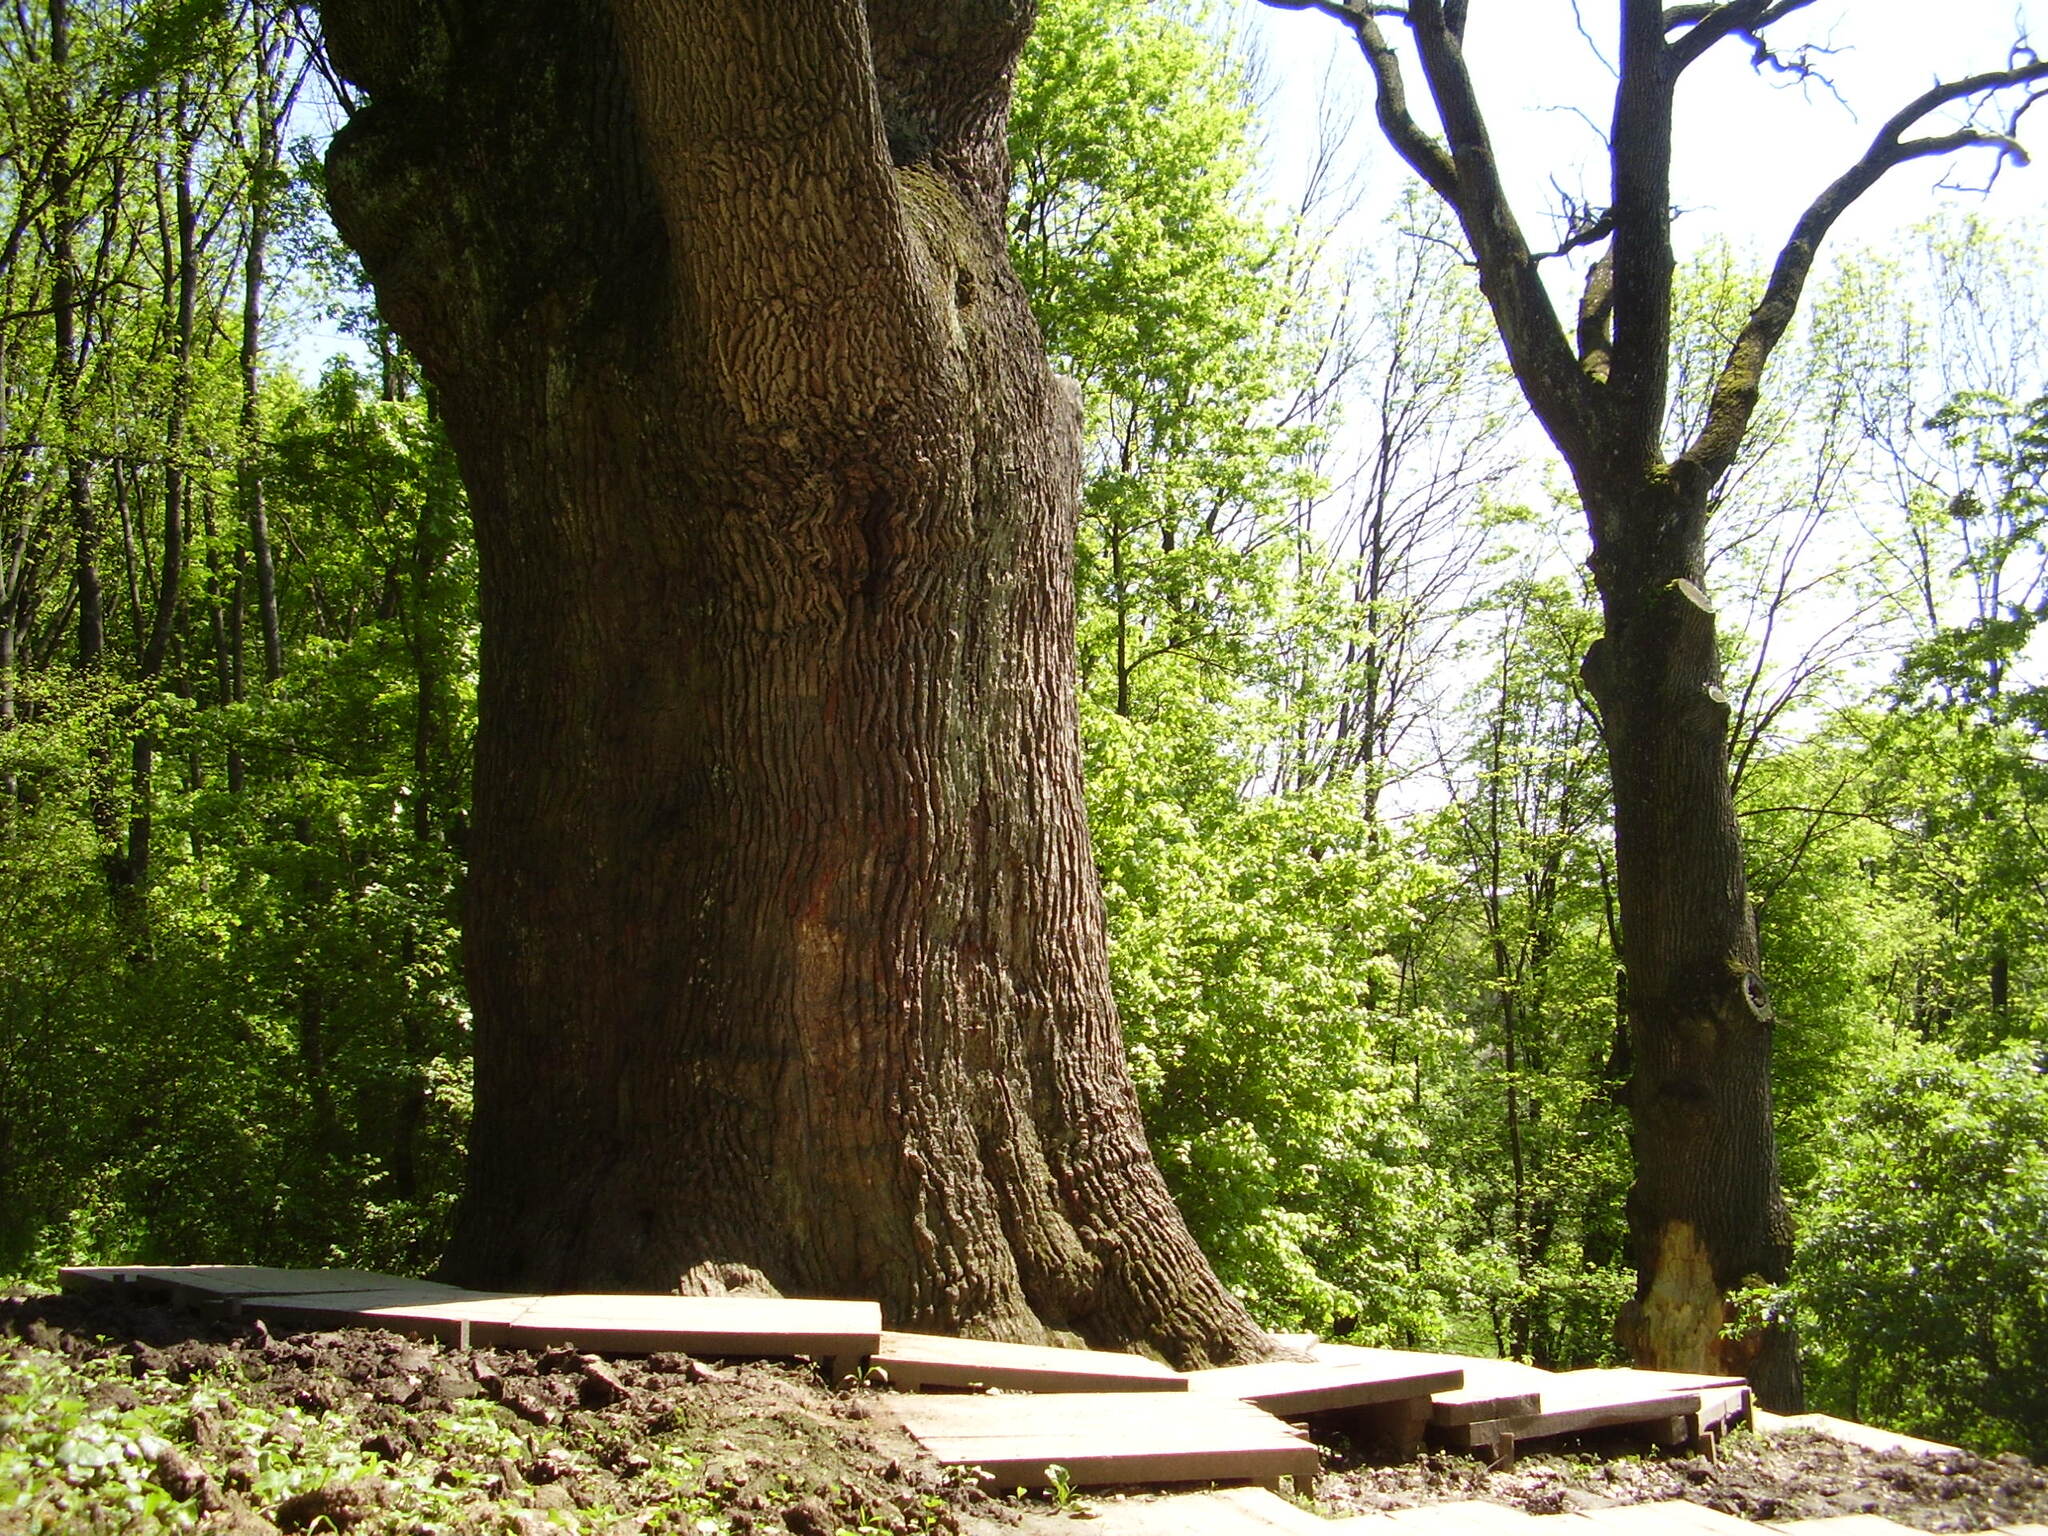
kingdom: Plantae
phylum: Tracheophyta
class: Magnoliopsida
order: Fagales
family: Fagaceae
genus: Quercus
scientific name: Quercus robur
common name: Pedunculate oak
